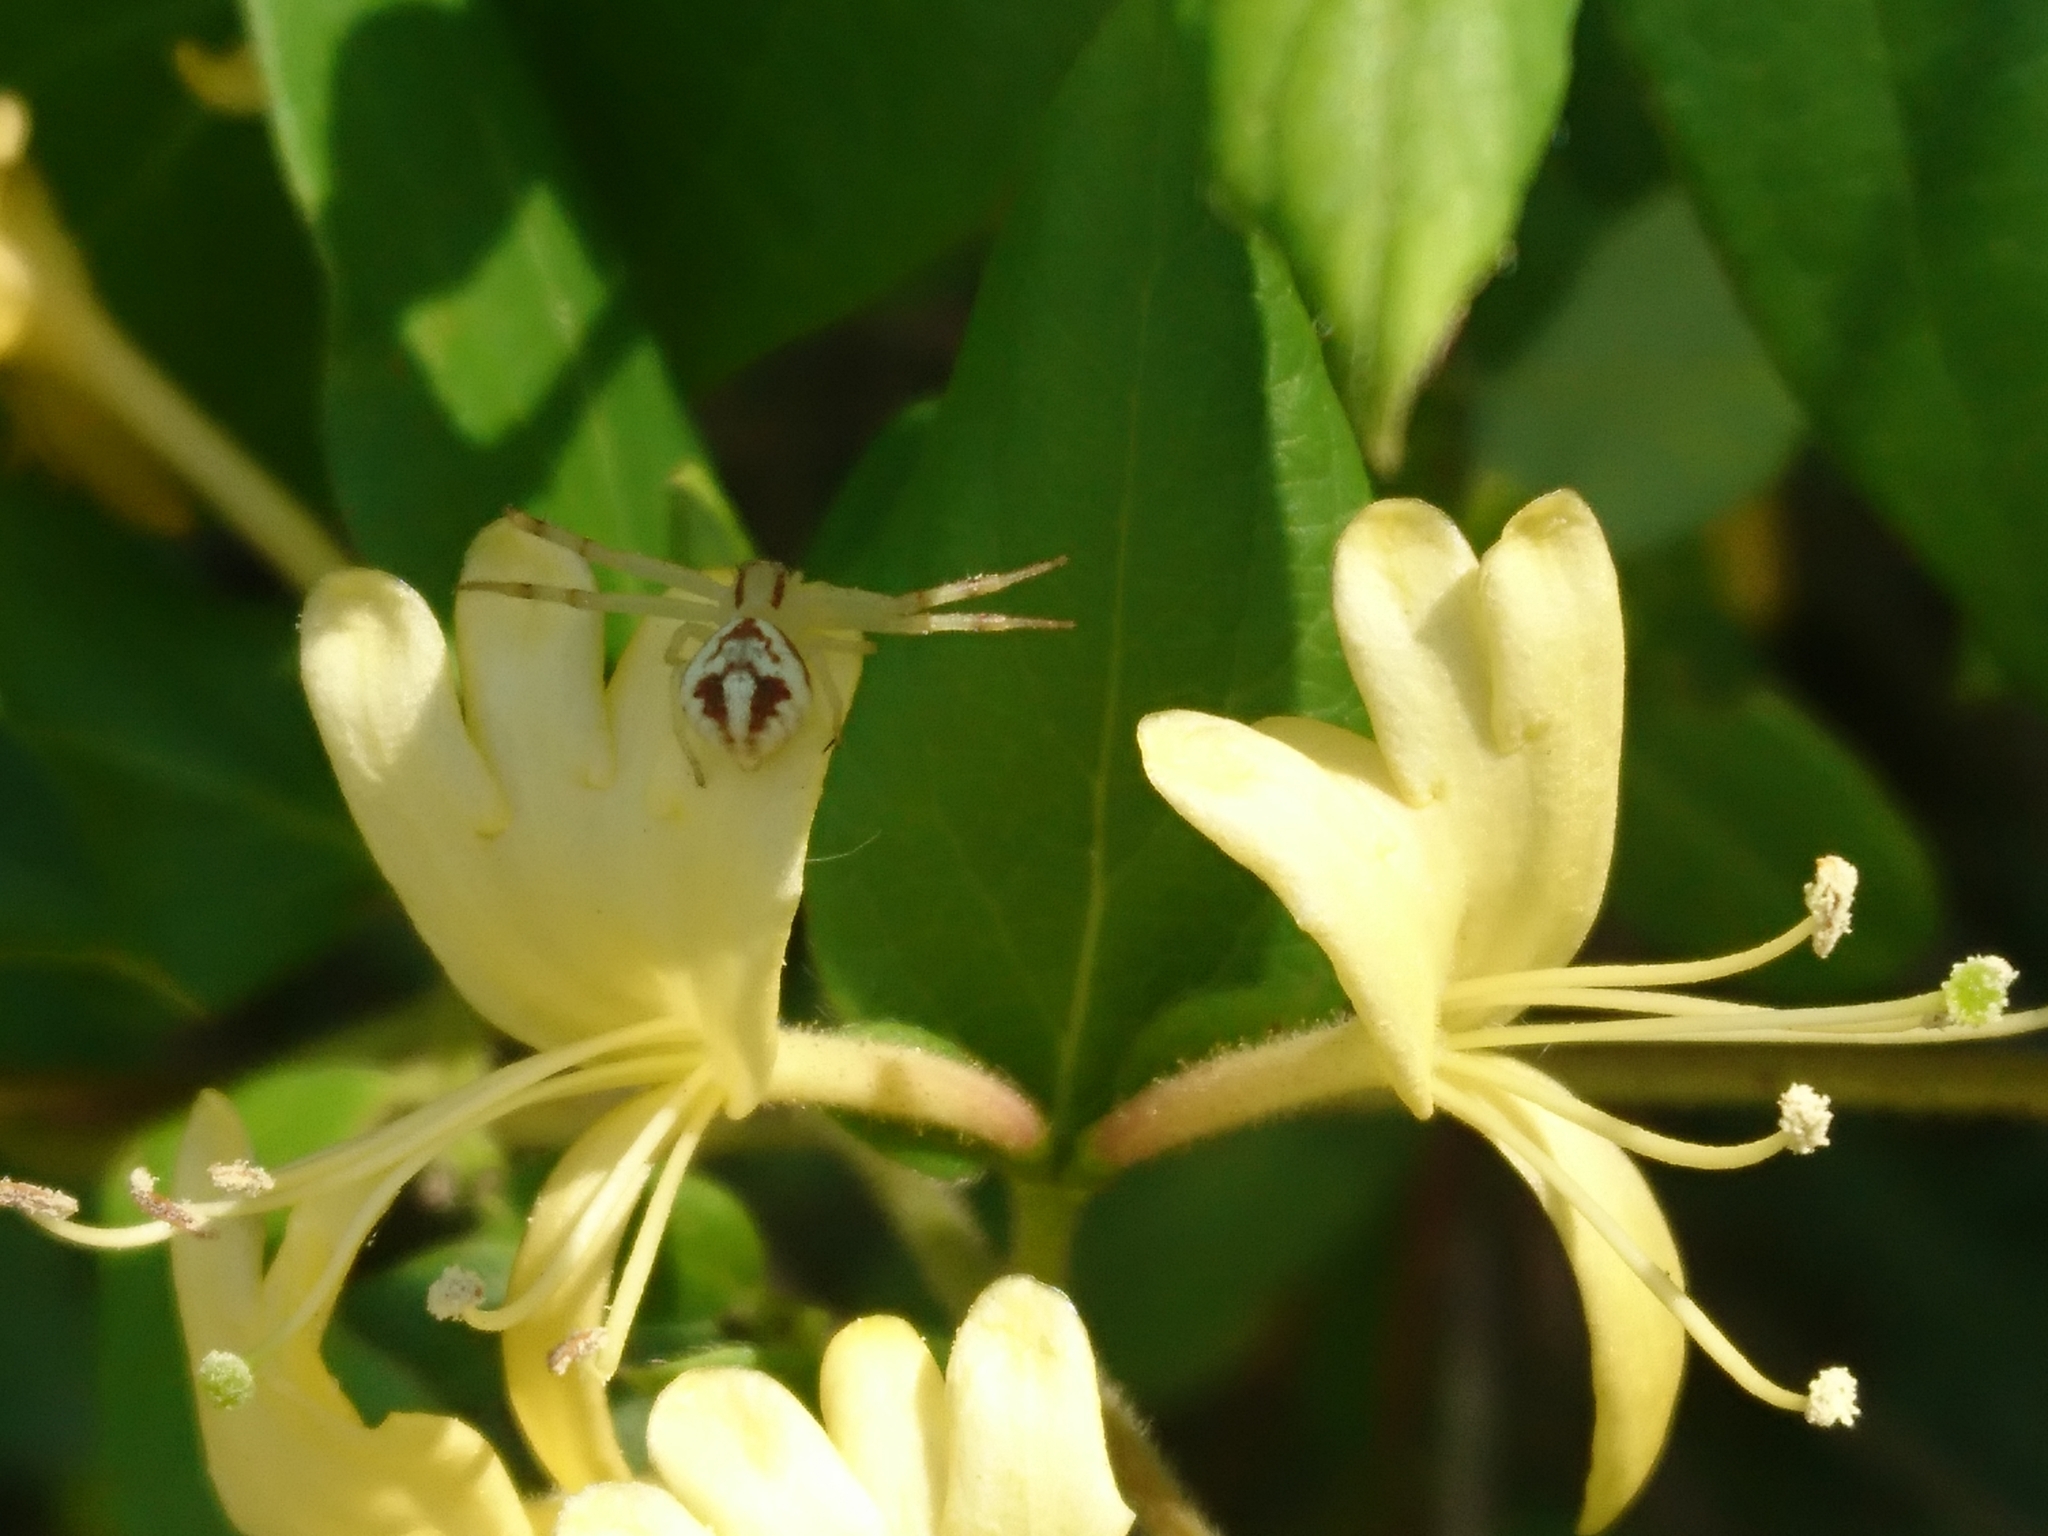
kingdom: Animalia
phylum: Arthropoda
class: Arachnida
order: Araneae
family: Thomisidae
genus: Misumenops
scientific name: Misumenops
